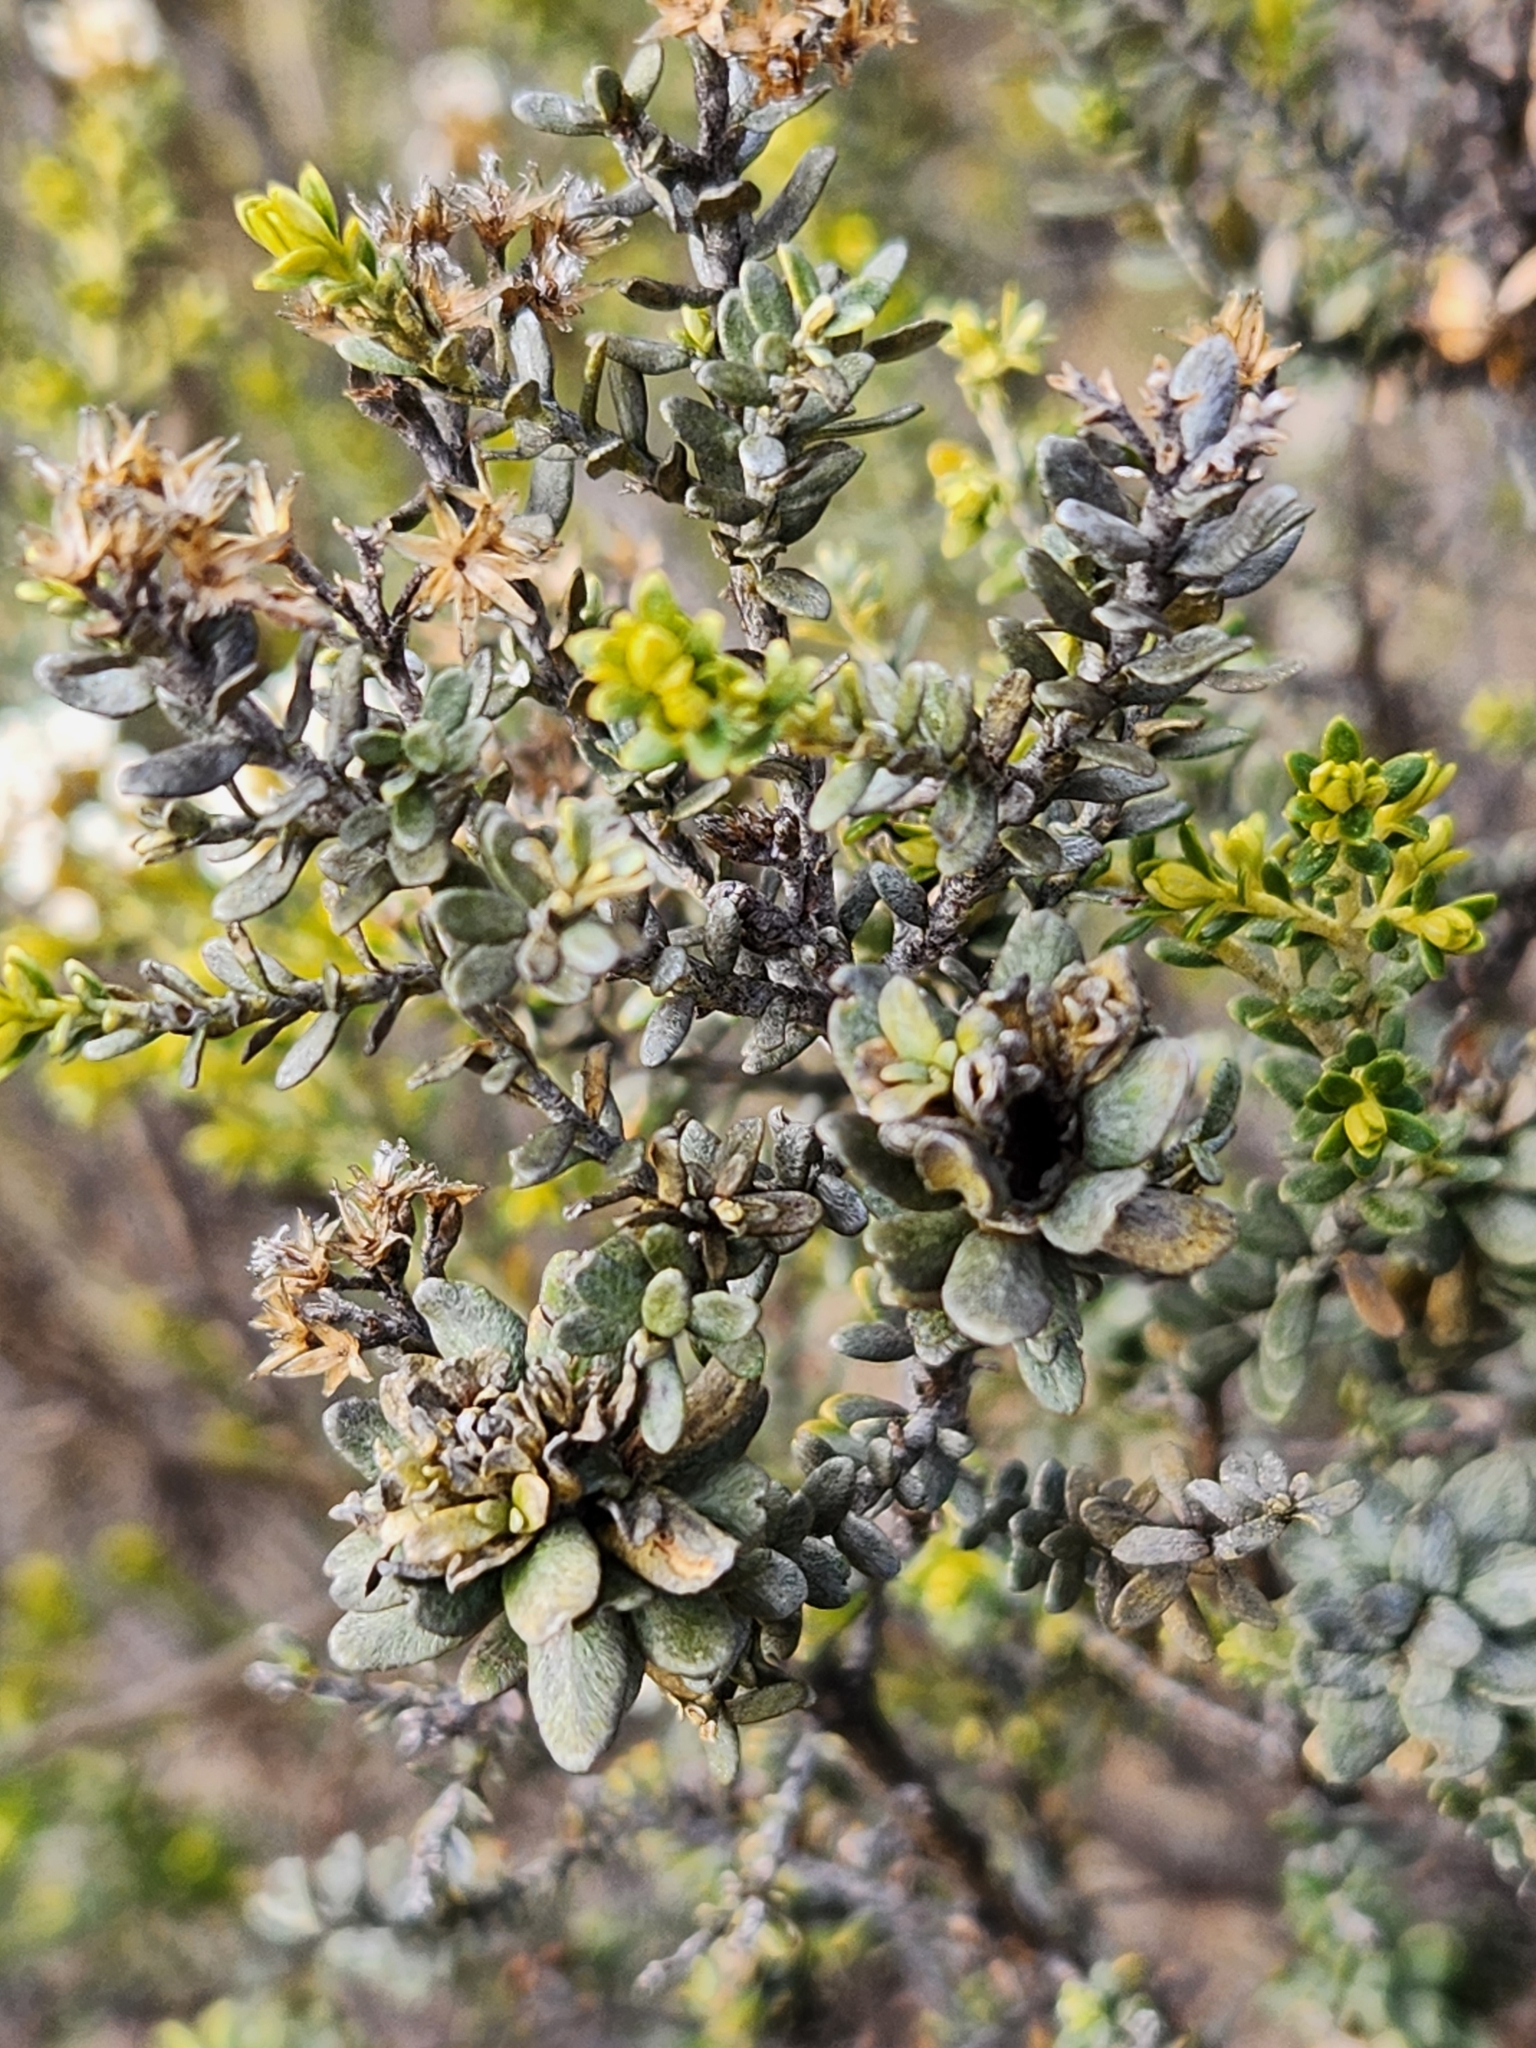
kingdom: Plantae
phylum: Tracheophyta
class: Magnoliopsida
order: Asterales
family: Asteraceae
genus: Ozothamnus
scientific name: Ozothamnus leptophyllus
